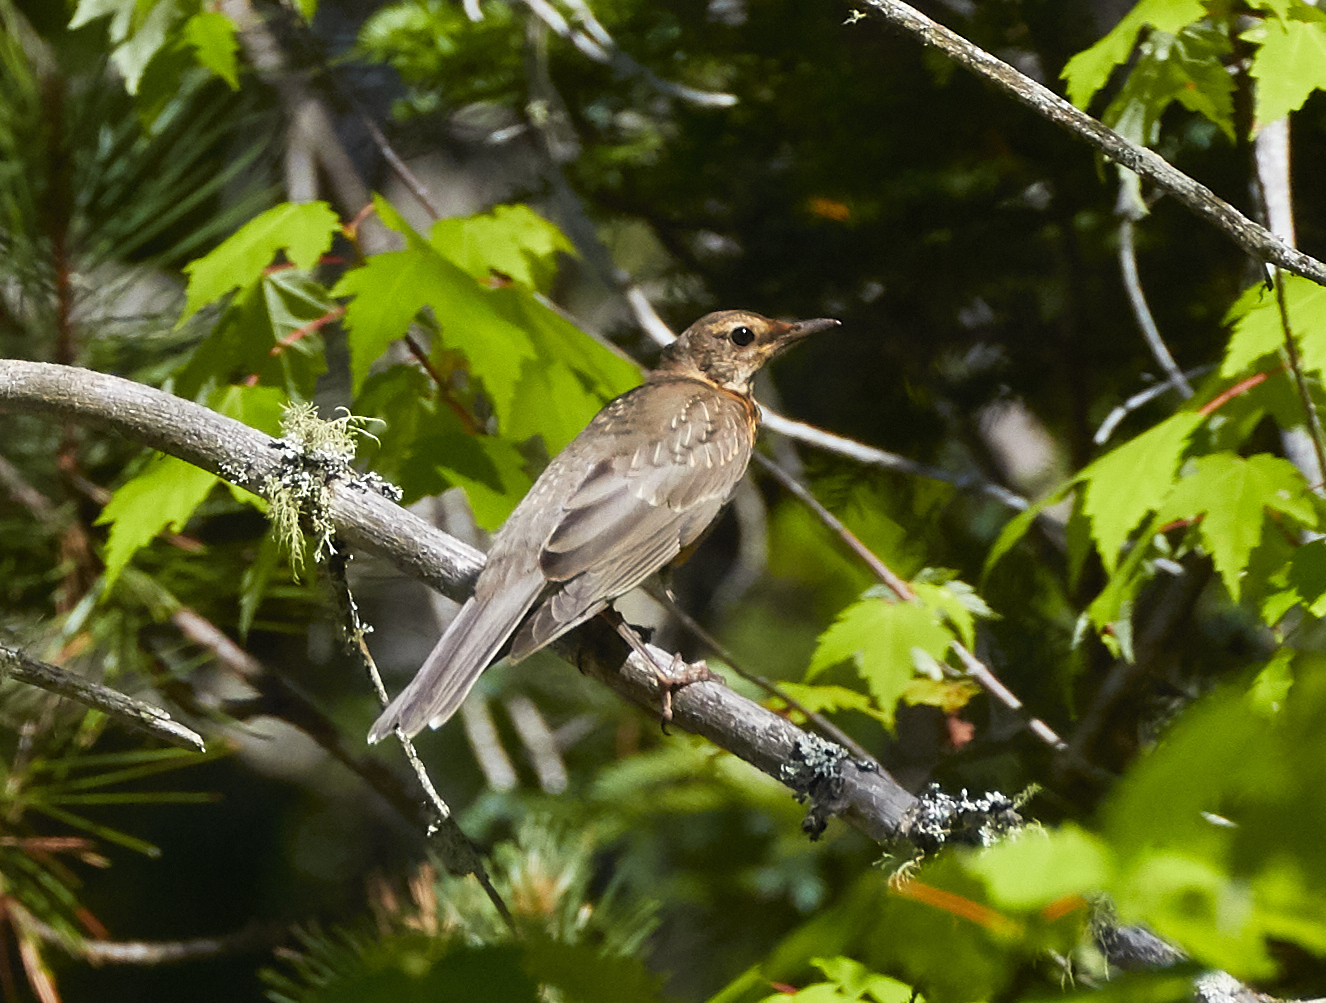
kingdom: Animalia
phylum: Chordata
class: Aves
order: Passeriformes
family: Turdidae
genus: Turdus
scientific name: Turdus migratorius
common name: American robin
